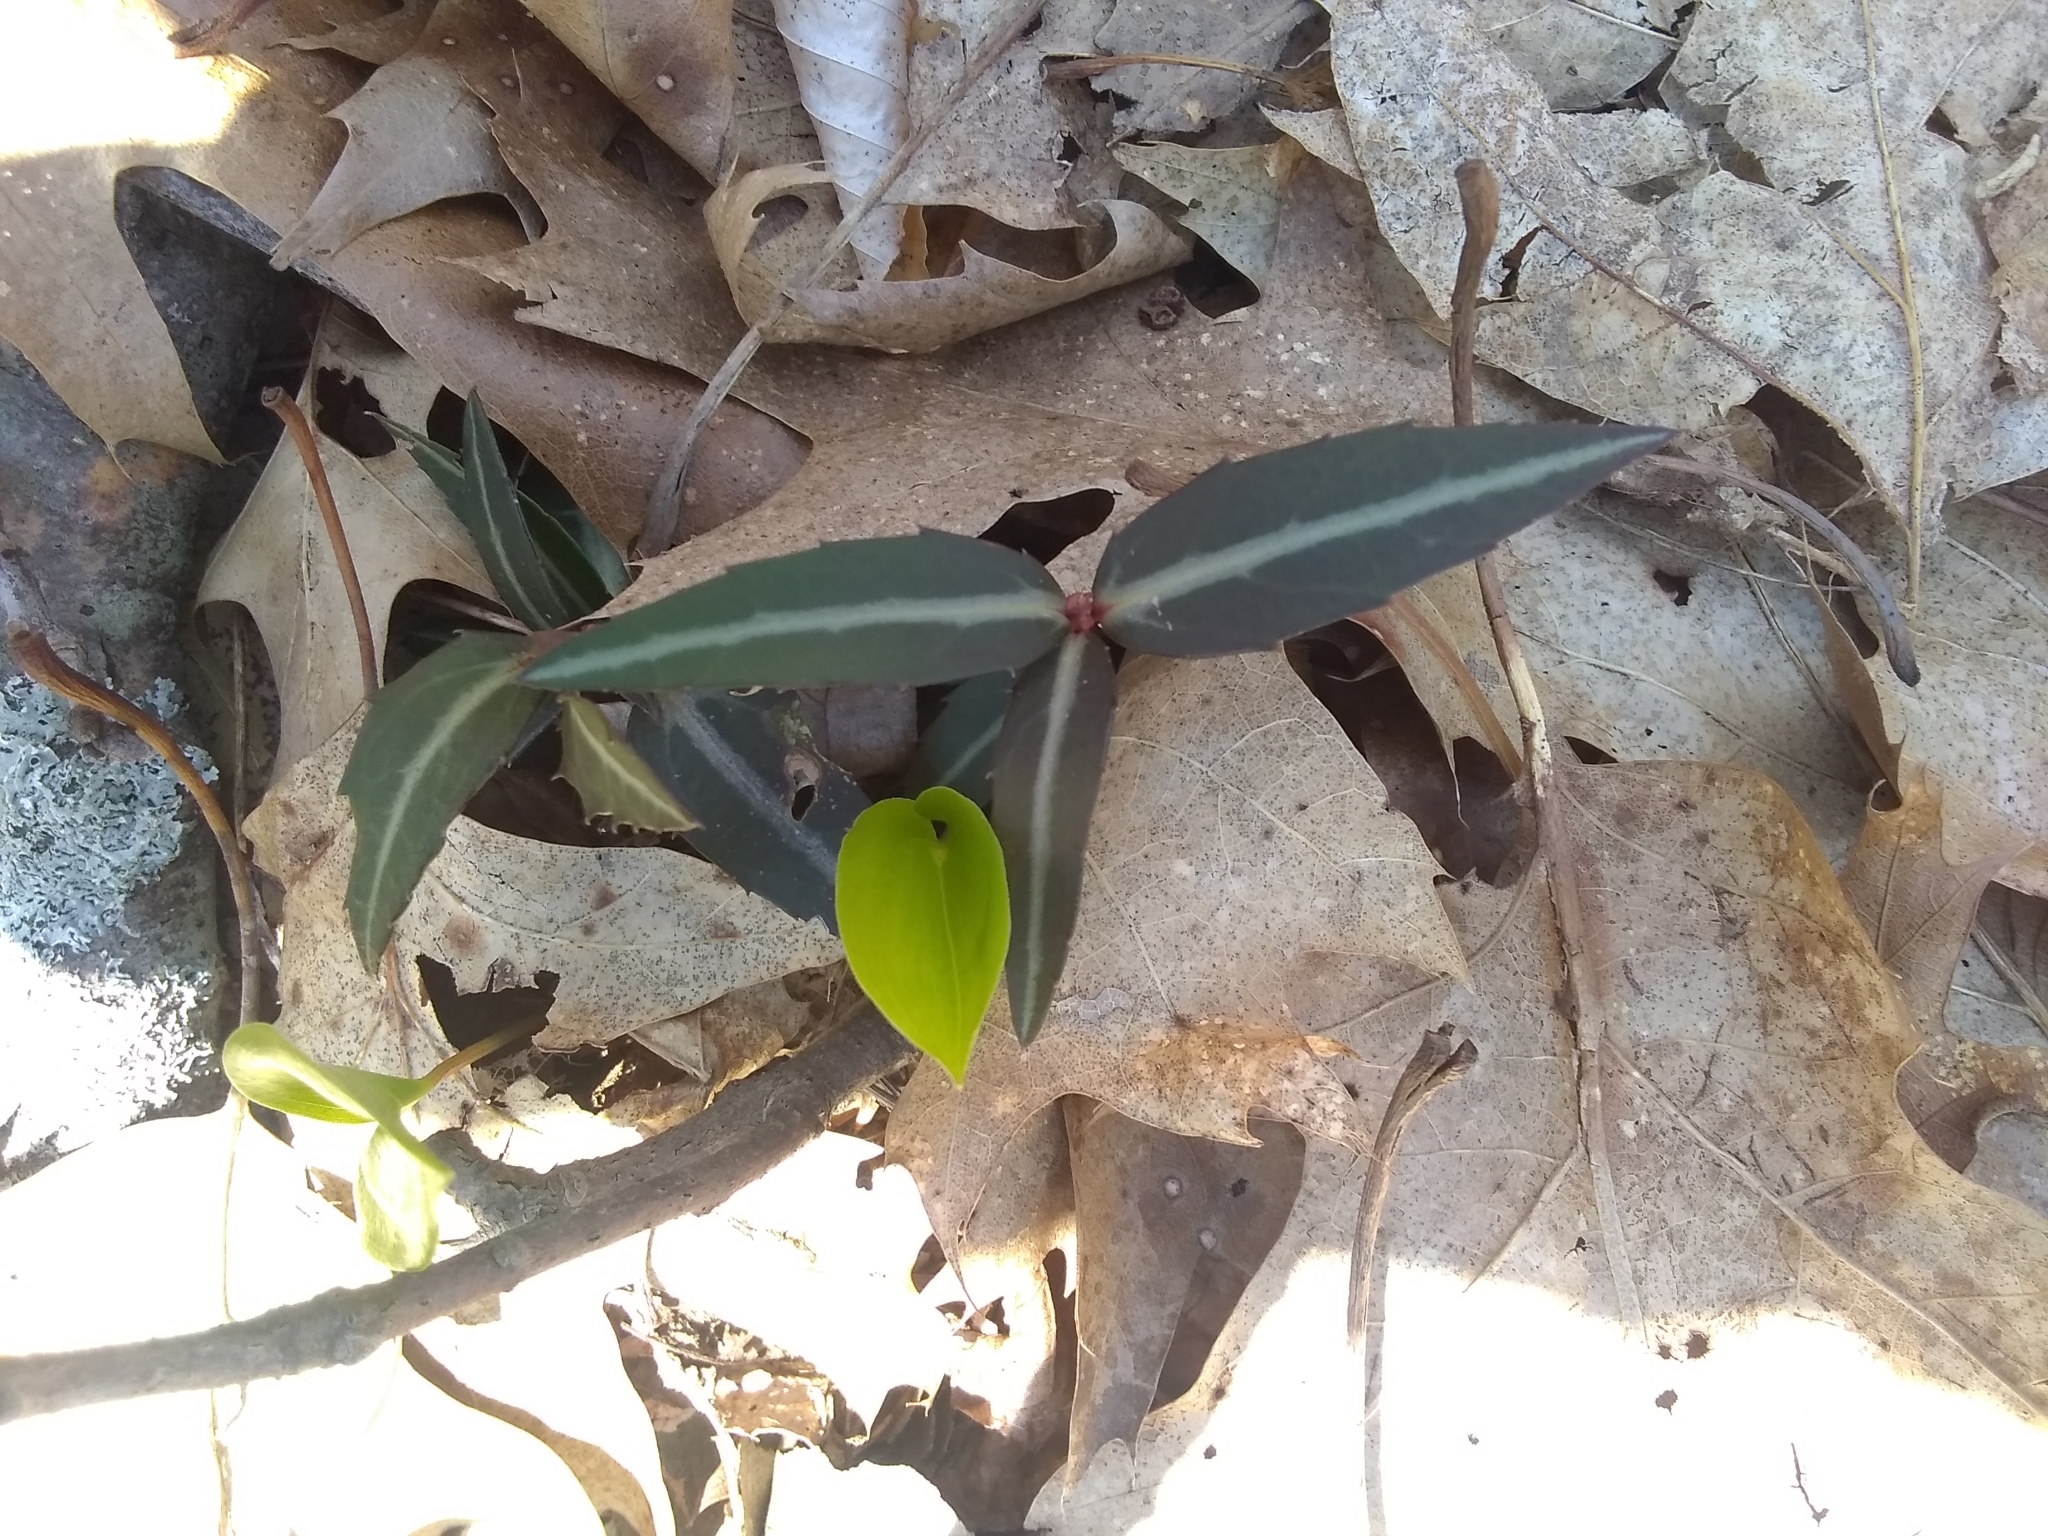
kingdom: Plantae
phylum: Tracheophyta
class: Magnoliopsida
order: Ericales
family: Ericaceae
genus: Chimaphila
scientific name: Chimaphila maculata
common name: Spotted pipsissewa
